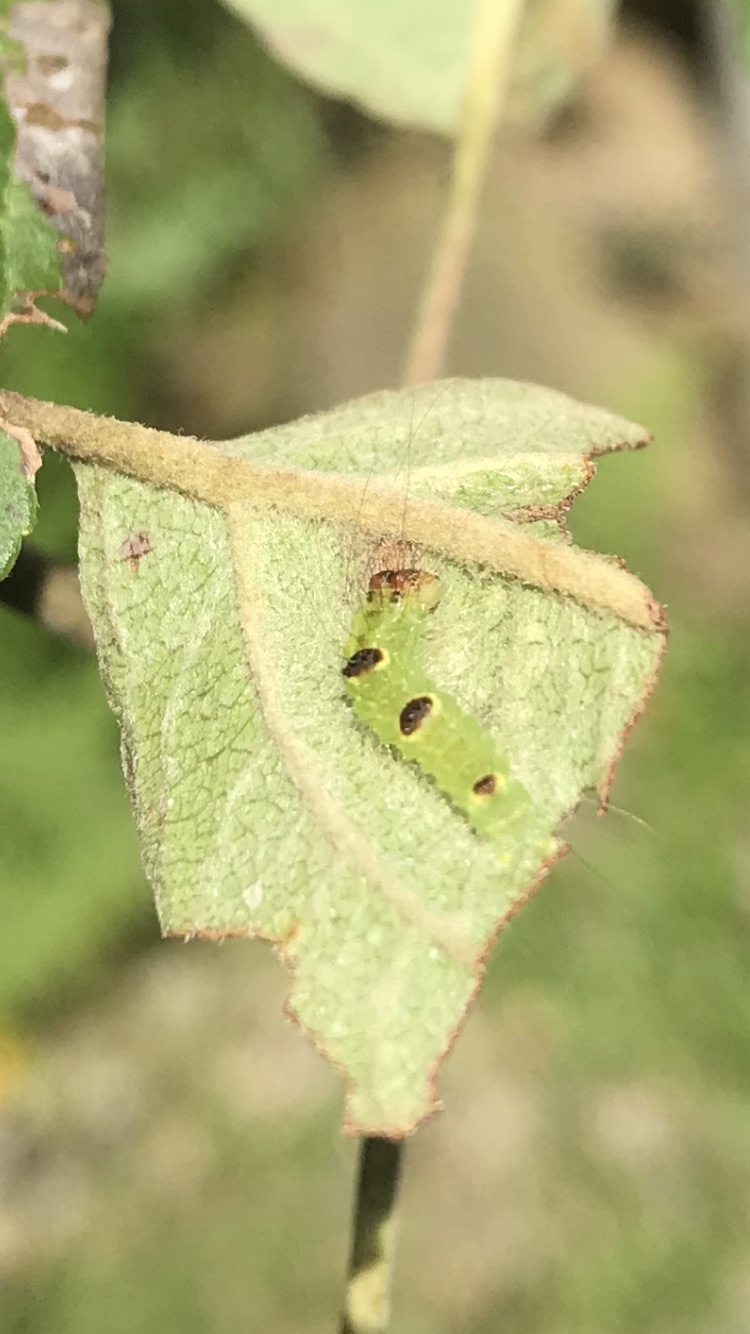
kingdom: Animalia
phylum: Arthropoda
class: Insecta
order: Lepidoptera
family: Noctuidae
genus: Acronicta
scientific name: Acronicta morula
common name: Ochre dagger
